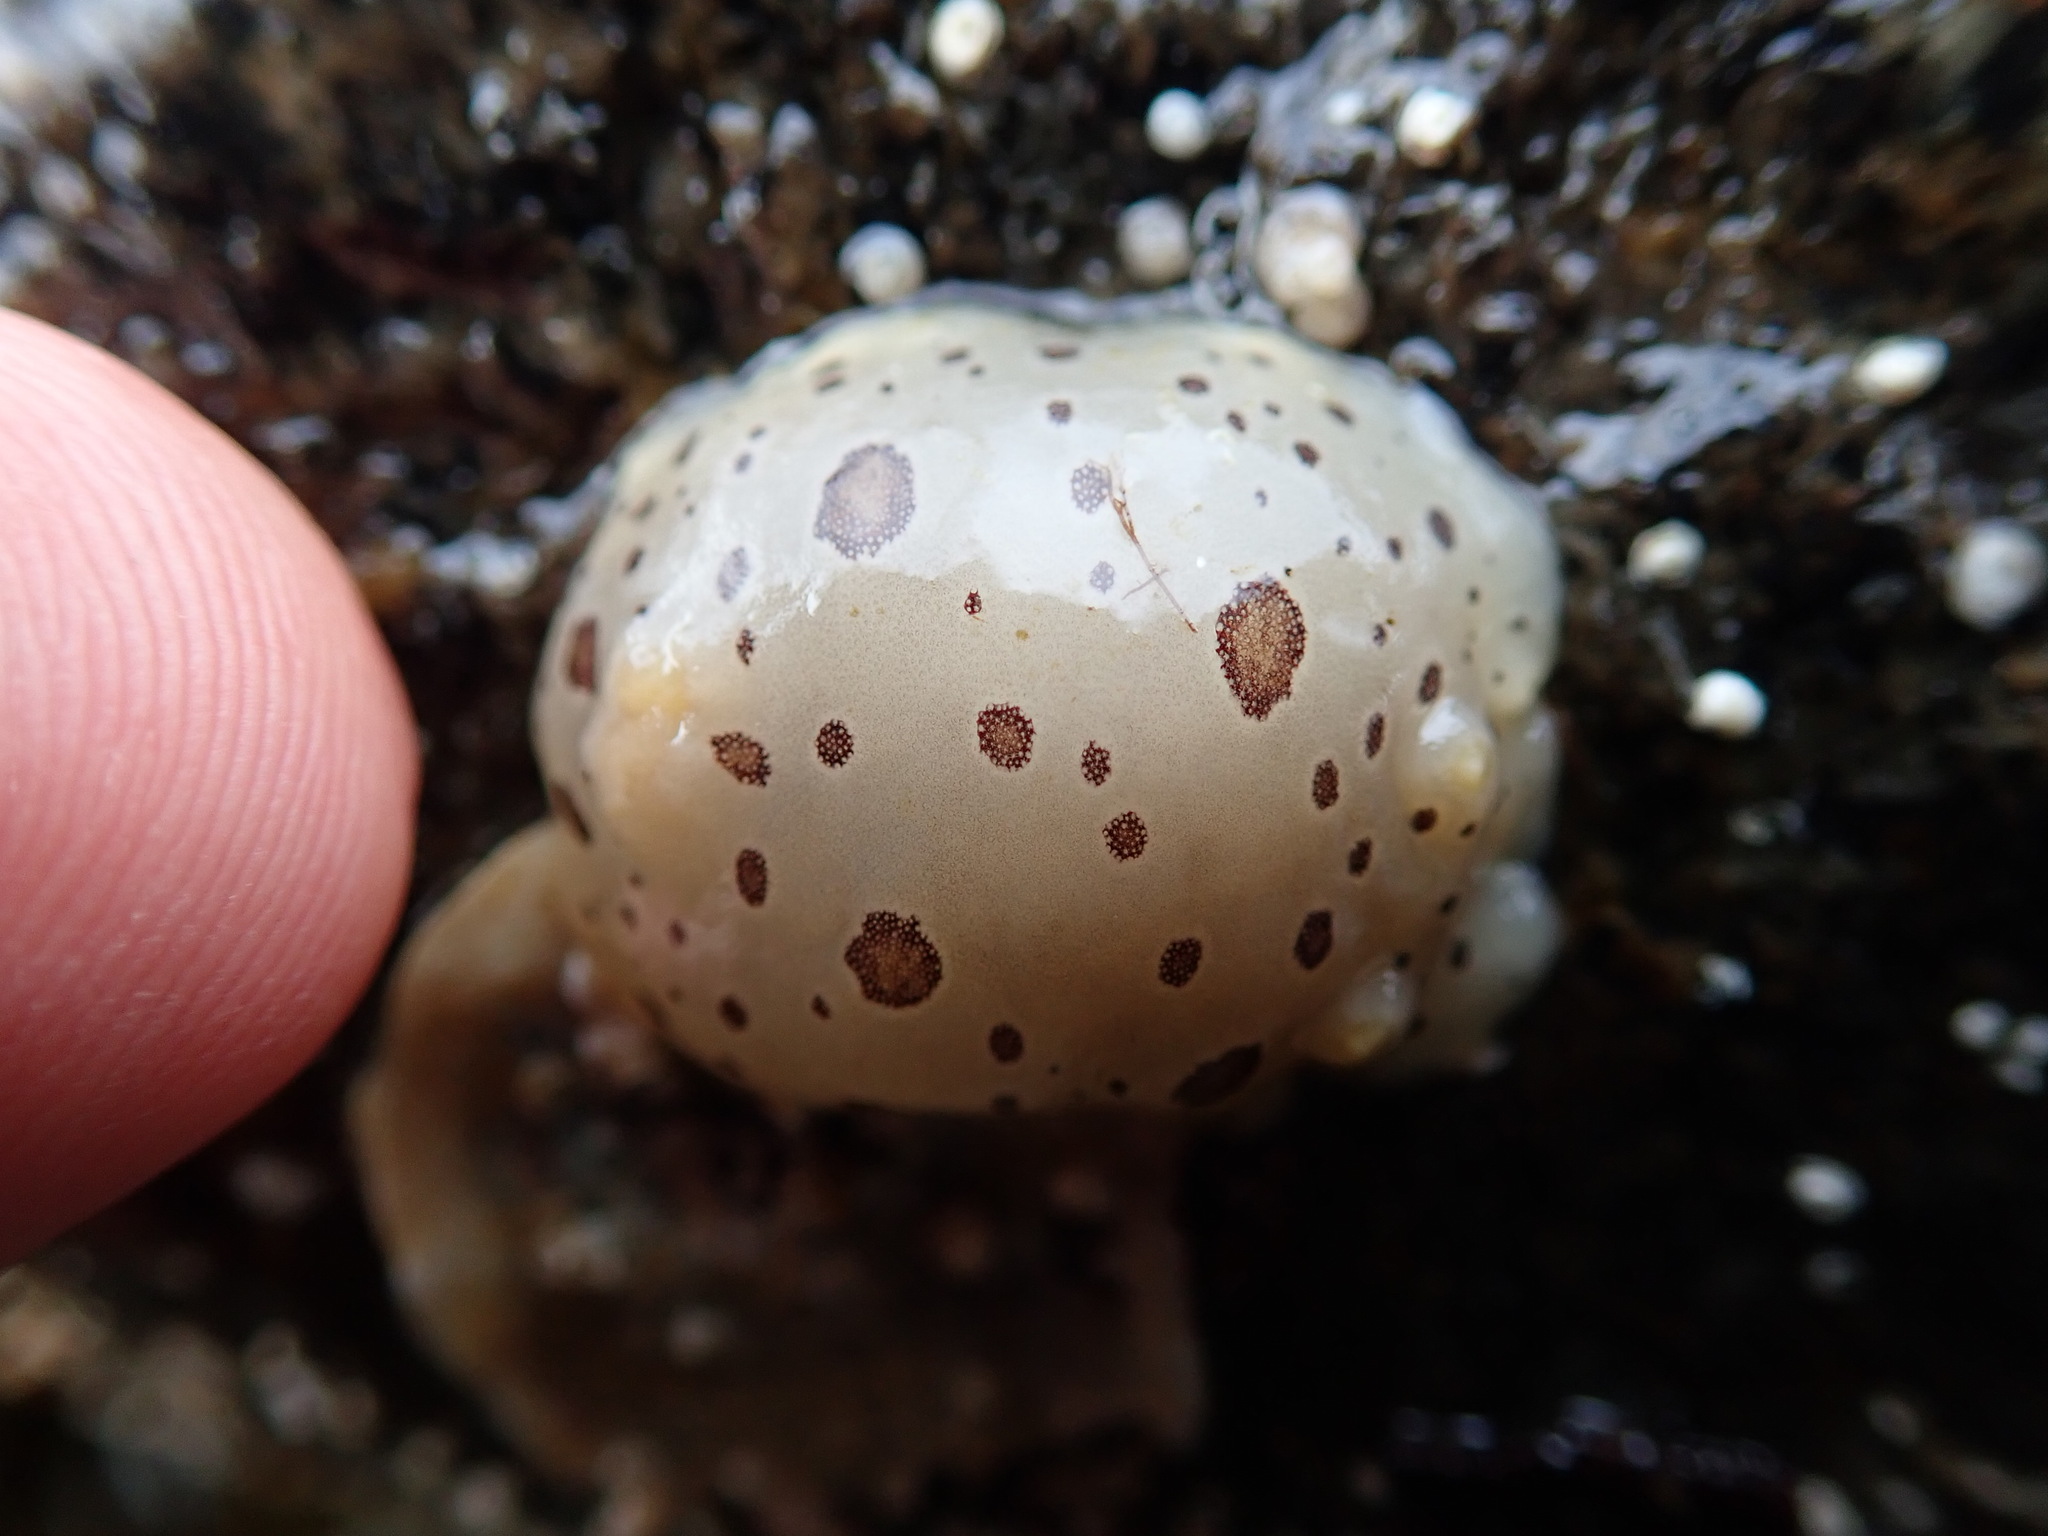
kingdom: Animalia
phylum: Mollusca
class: Gastropoda
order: Nudibranchia
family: Discodorididae
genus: Diaulula
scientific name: Diaulula odonoghuei
